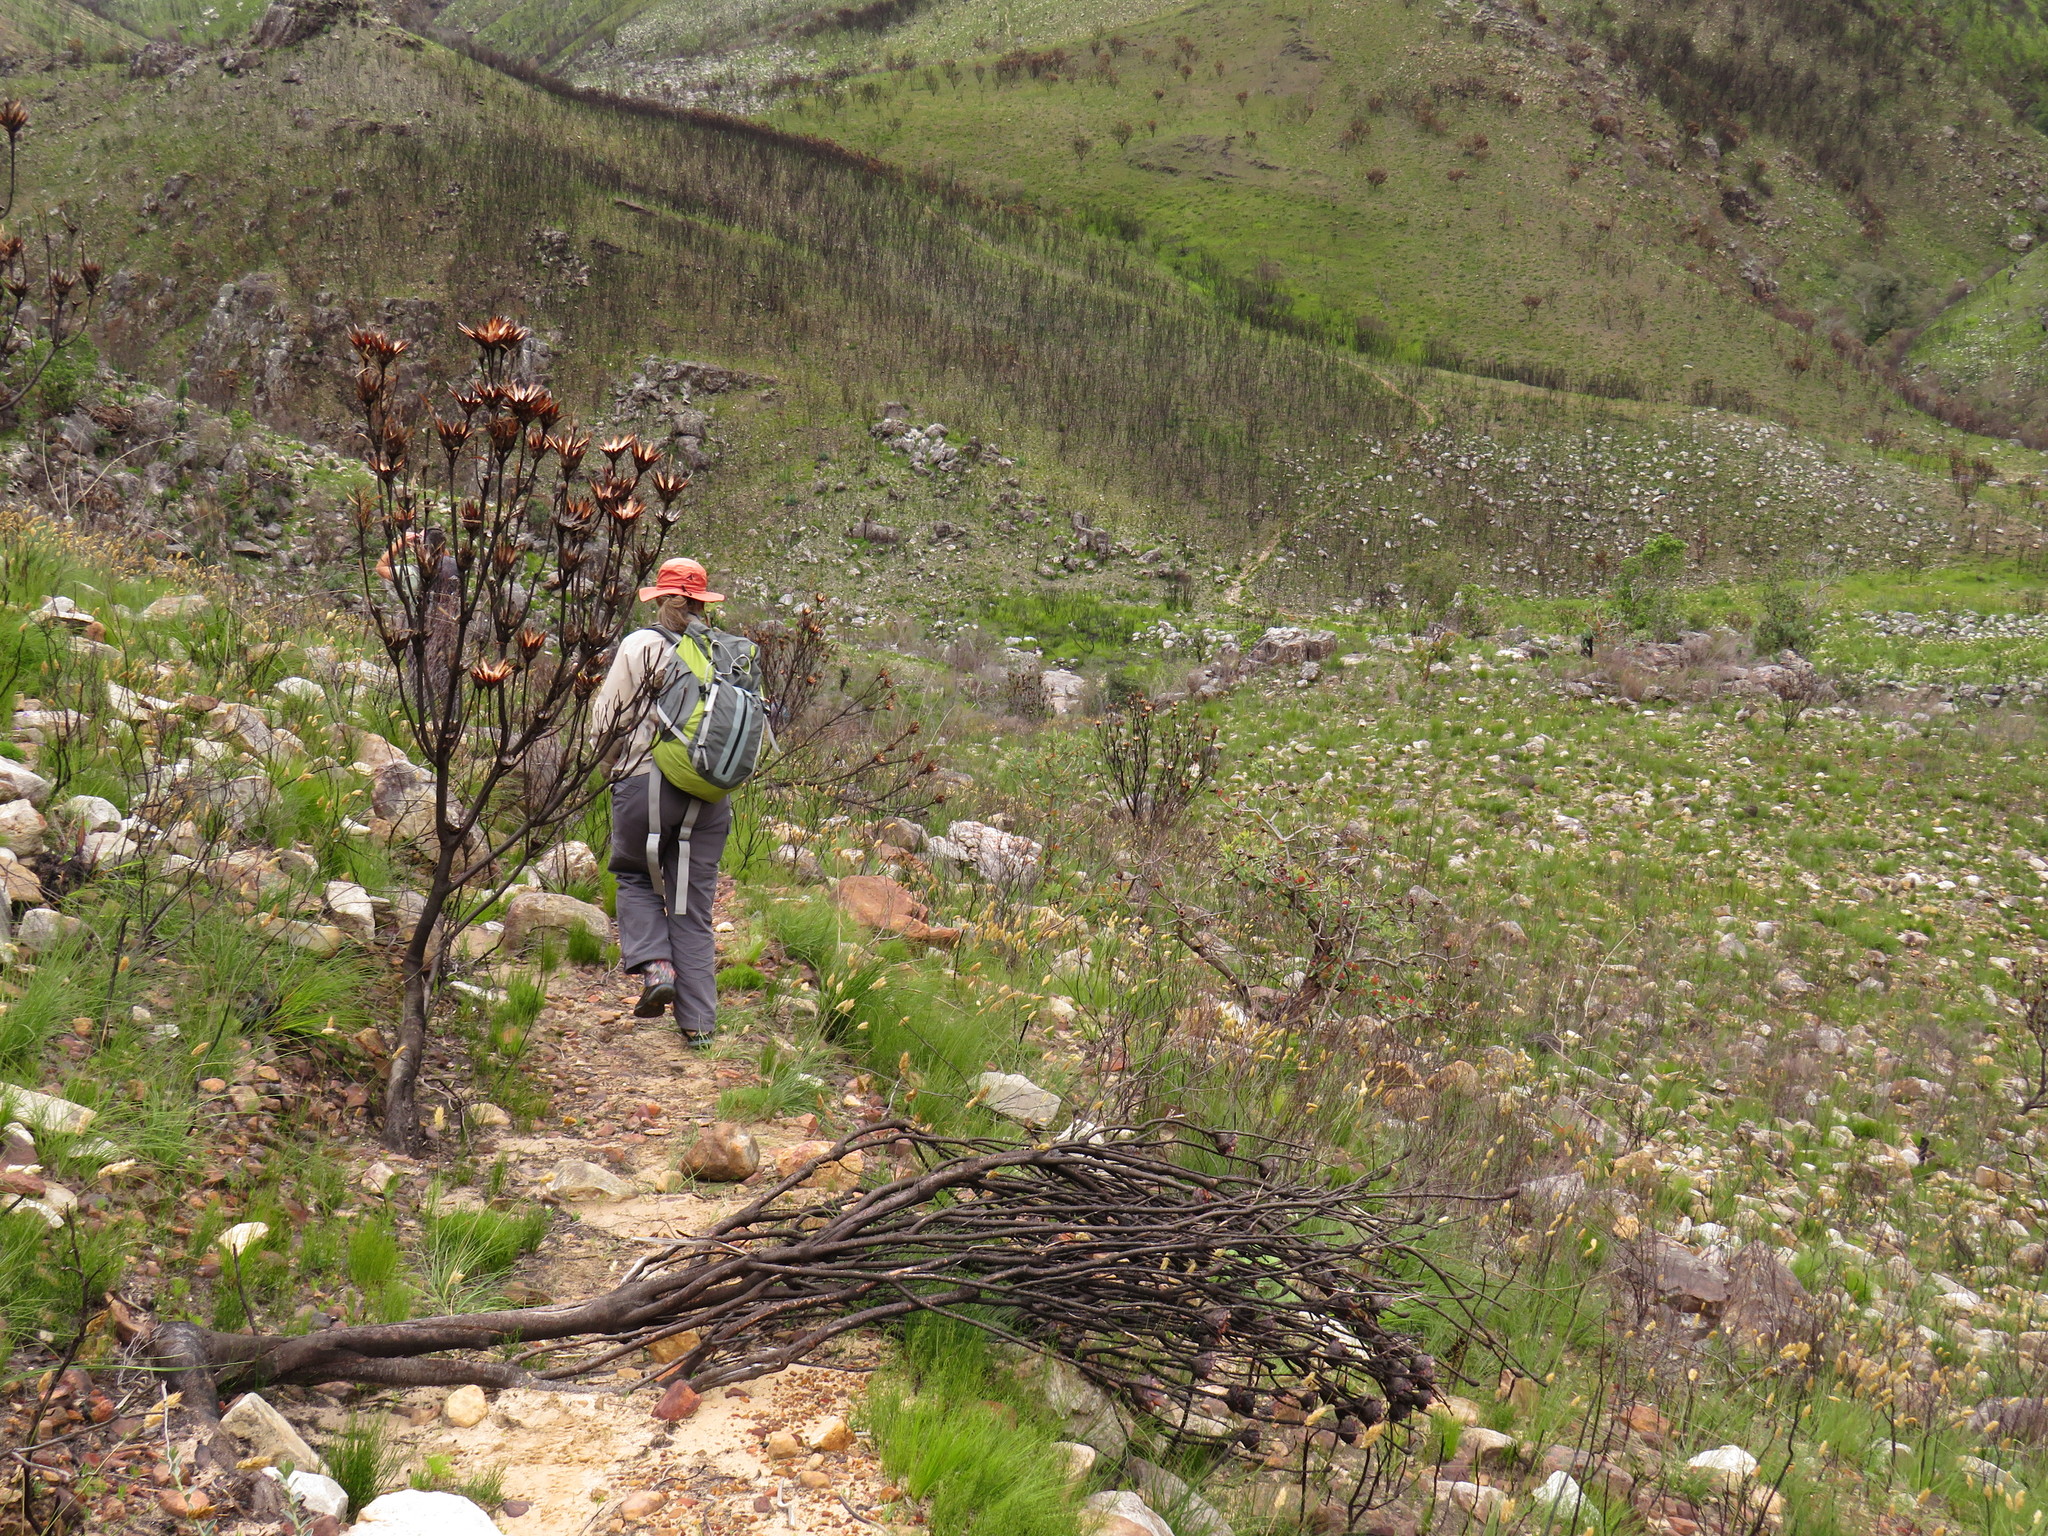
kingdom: Plantae
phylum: Tracheophyta
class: Magnoliopsida
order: Proteales
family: Proteaceae
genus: Protea
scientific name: Protea nitida
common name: Tree protea
